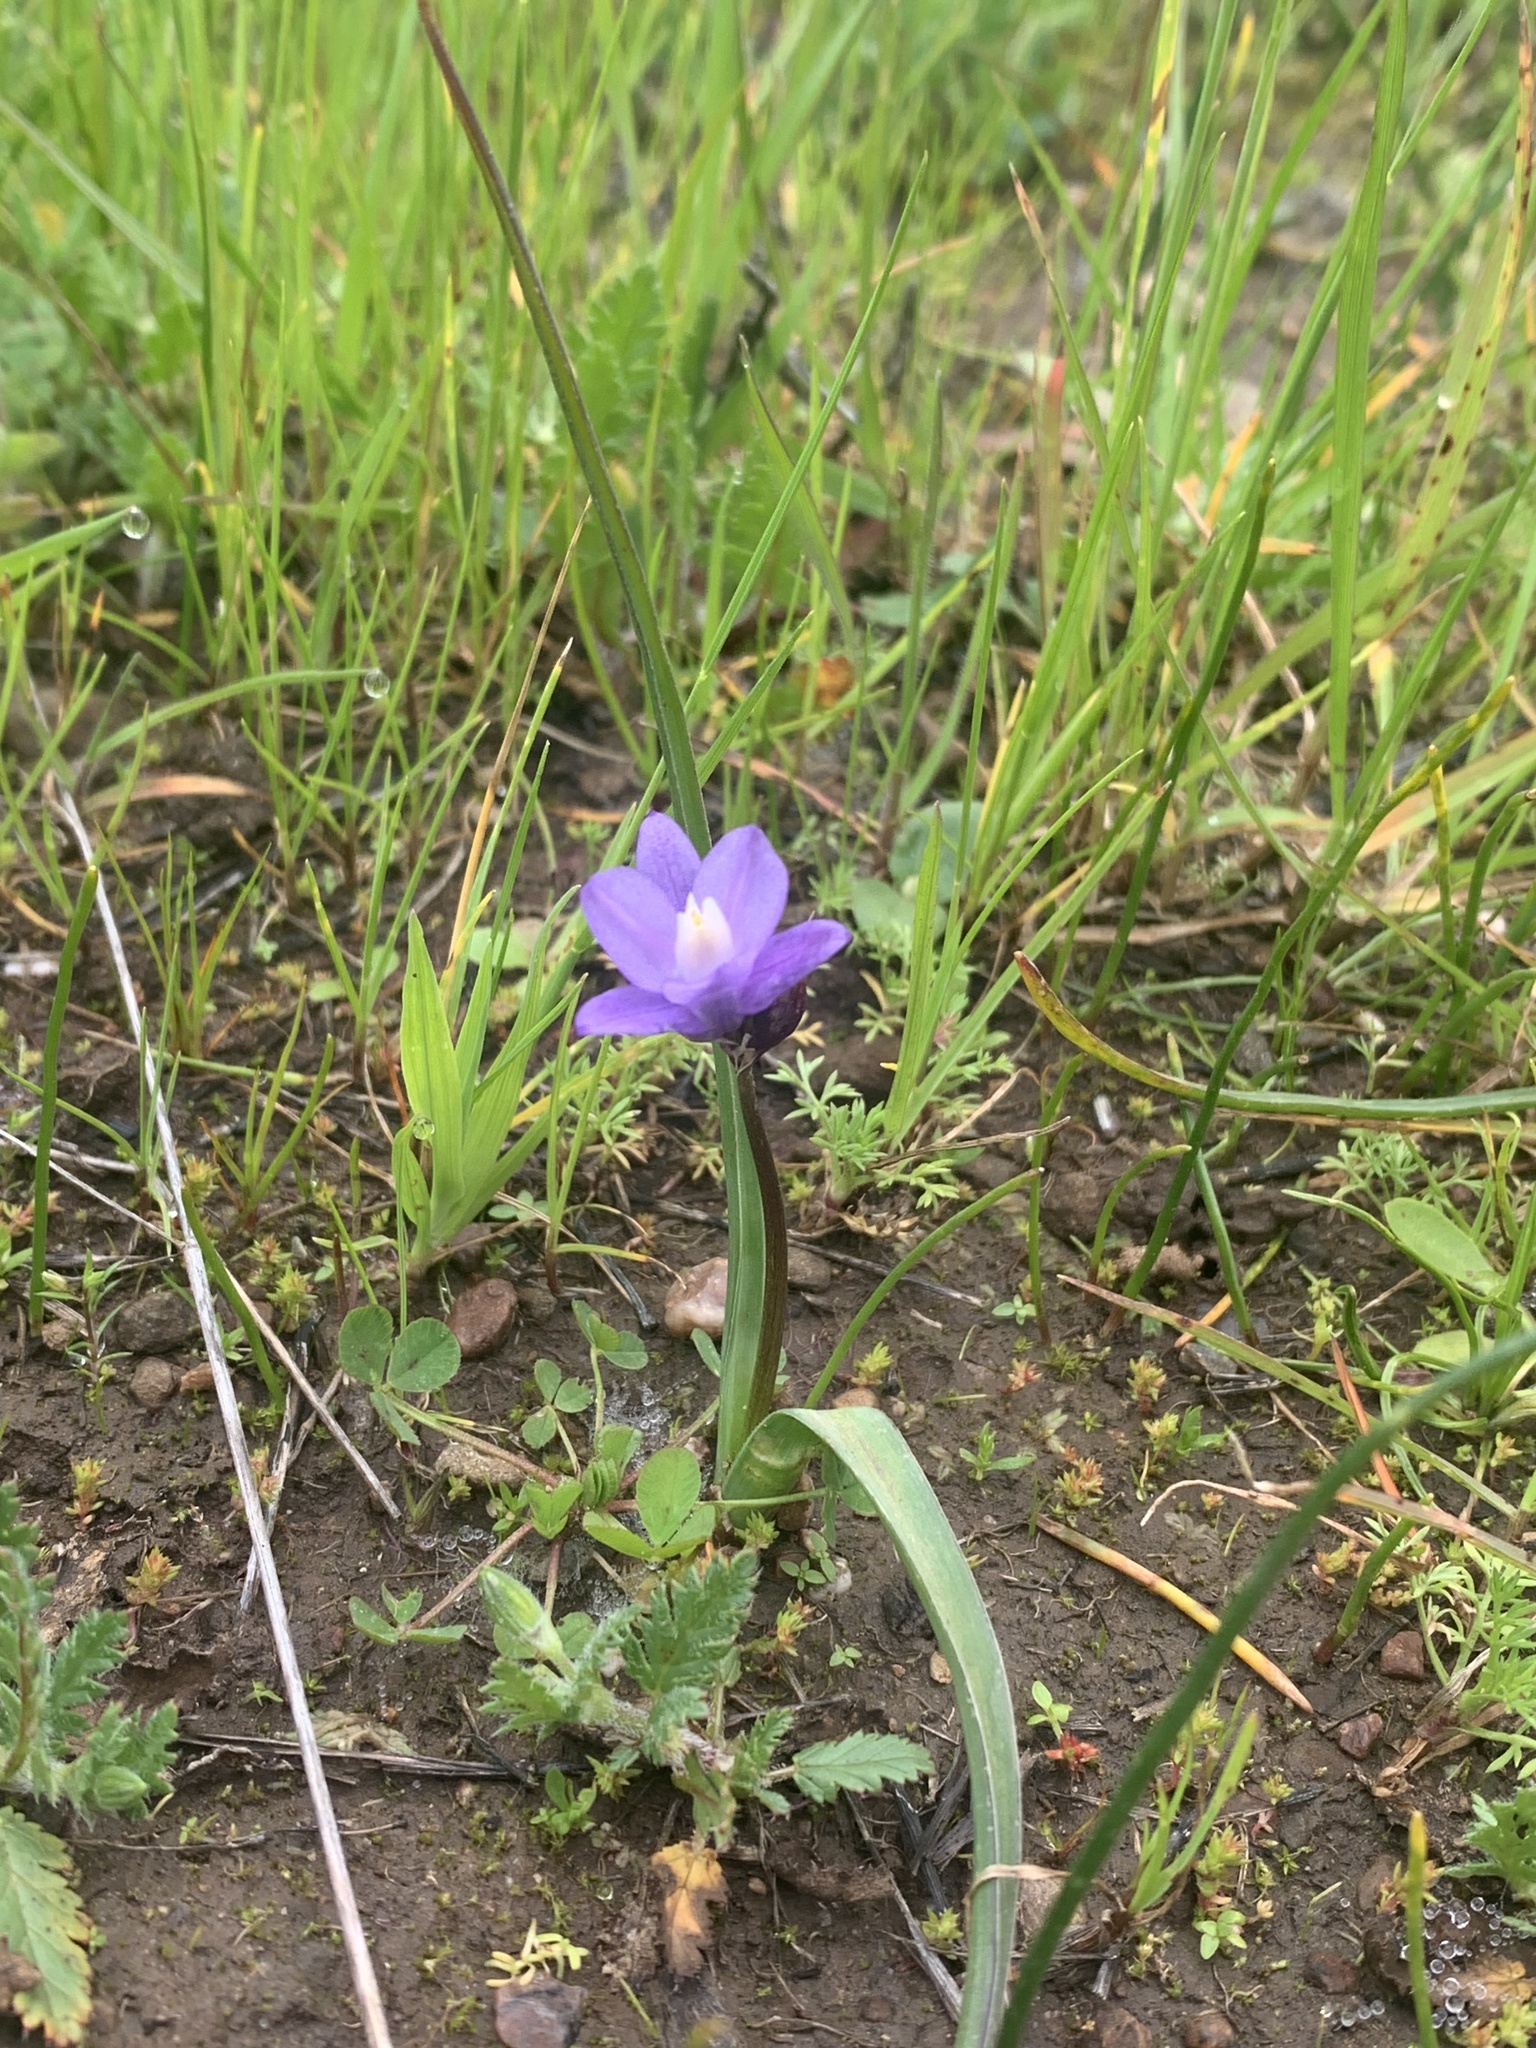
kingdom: Plantae
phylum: Tracheophyta
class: Liliopsida
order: Asparagales
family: Asparagaceae
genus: Dipterostemon
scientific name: Dipterostemon capitatus
